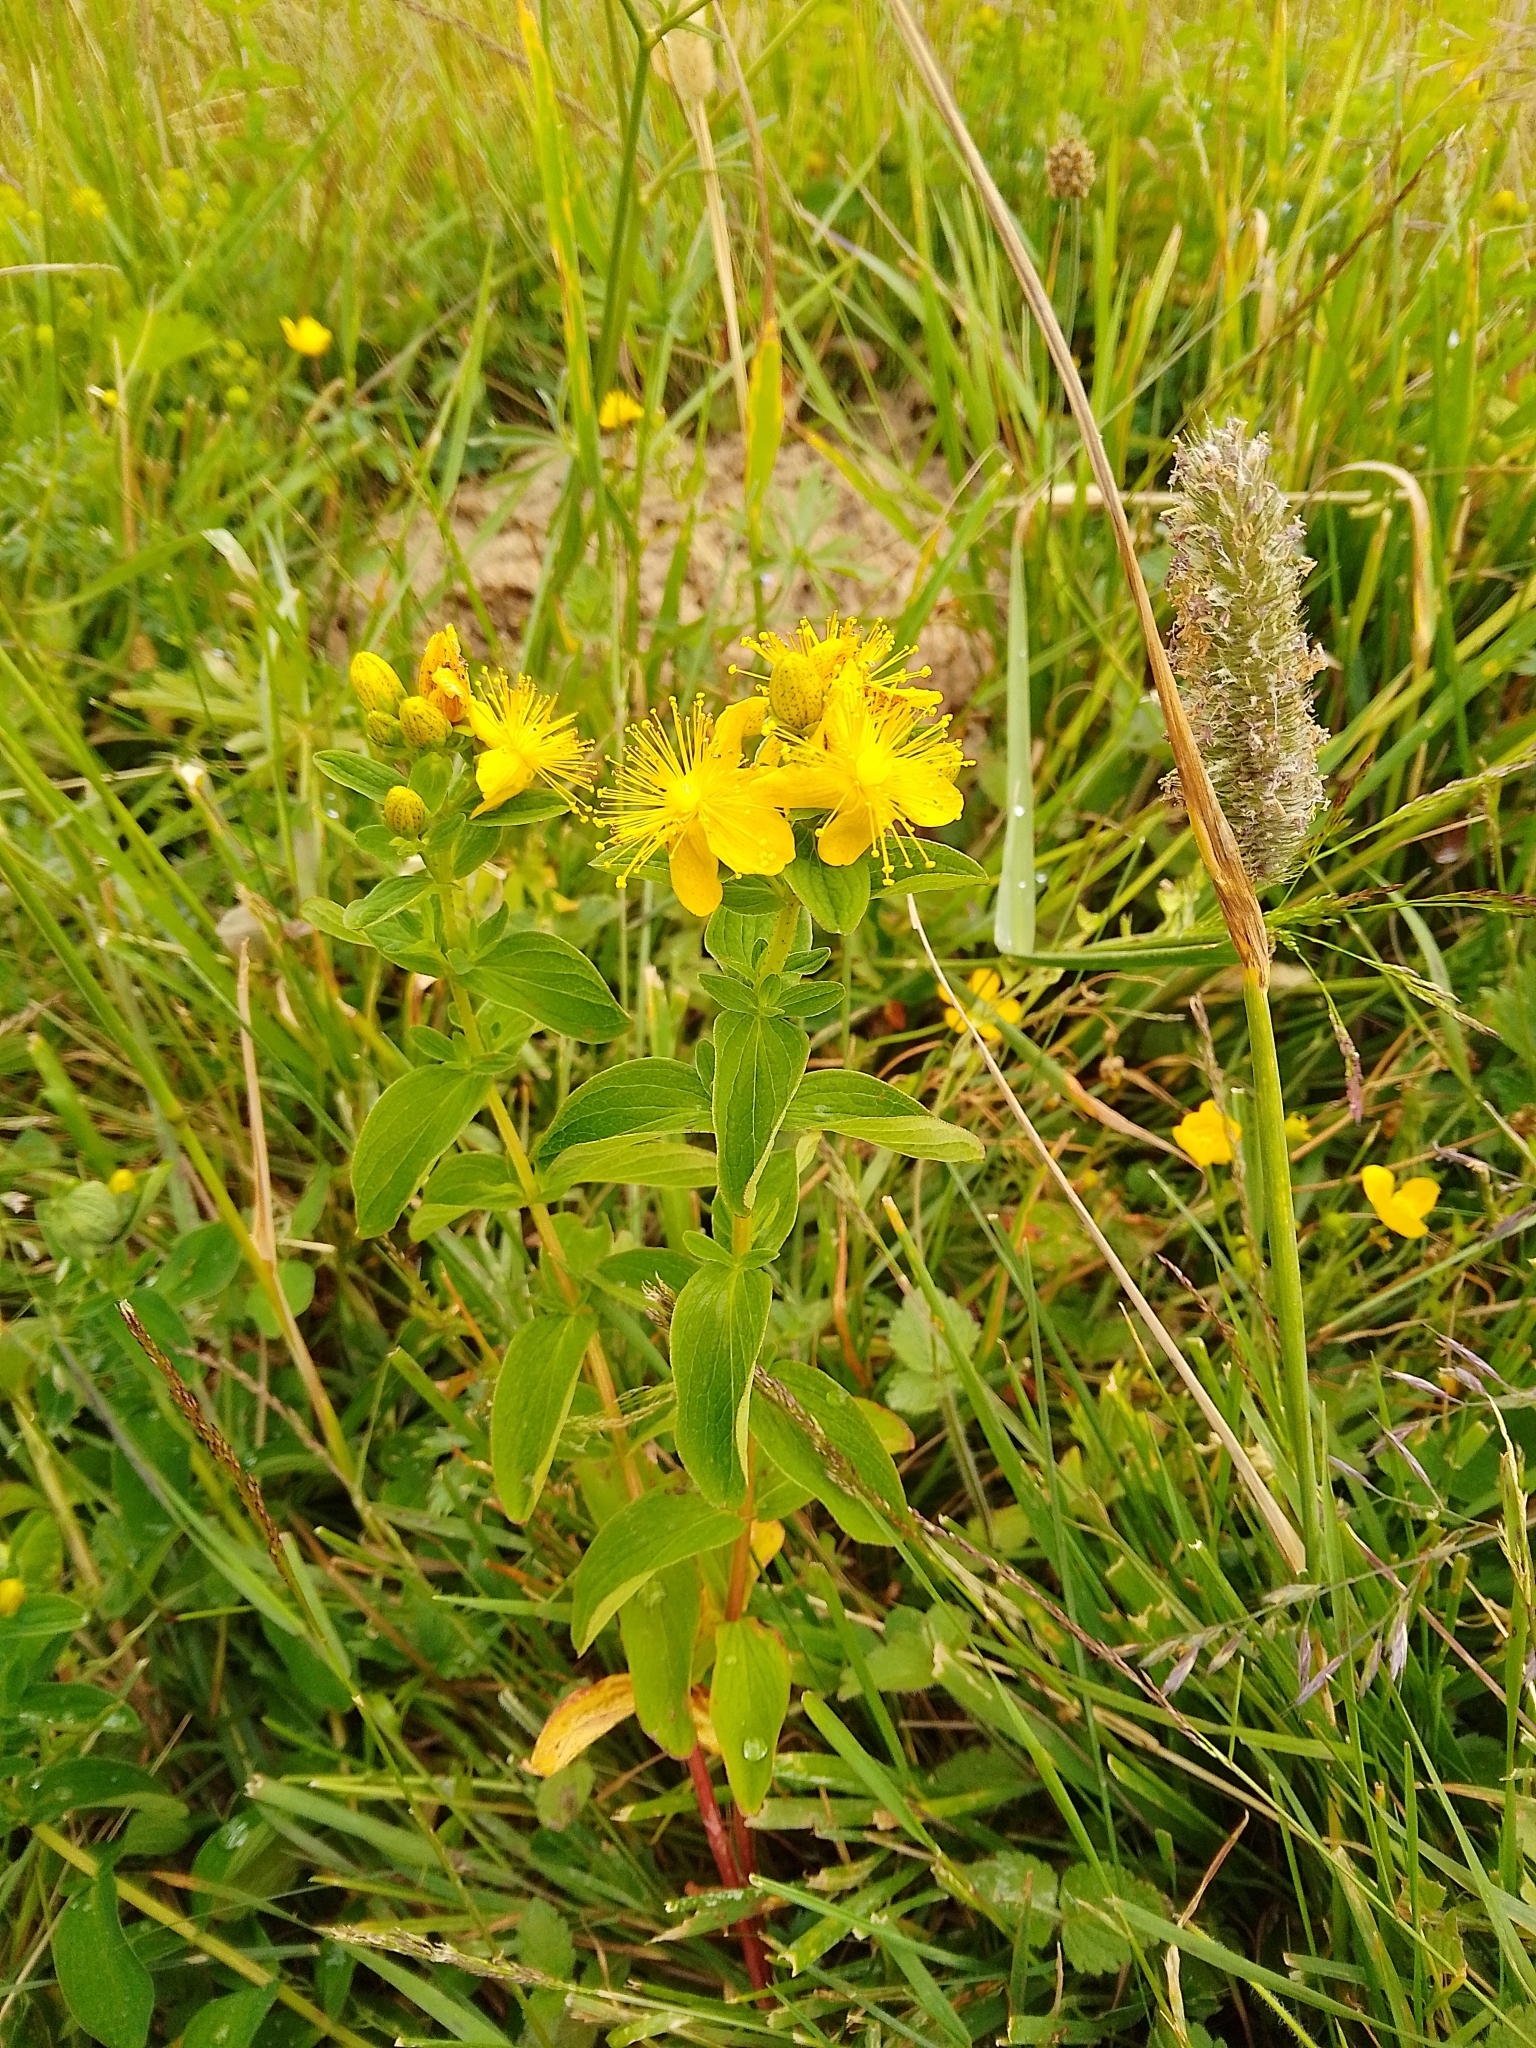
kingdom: Plantae
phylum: Tracheophyta
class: Magnoliopsida
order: Malpighiales
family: Hypericaceae
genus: Hypericum
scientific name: Hypericum maculatum
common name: Imperforate st. john's-wort
